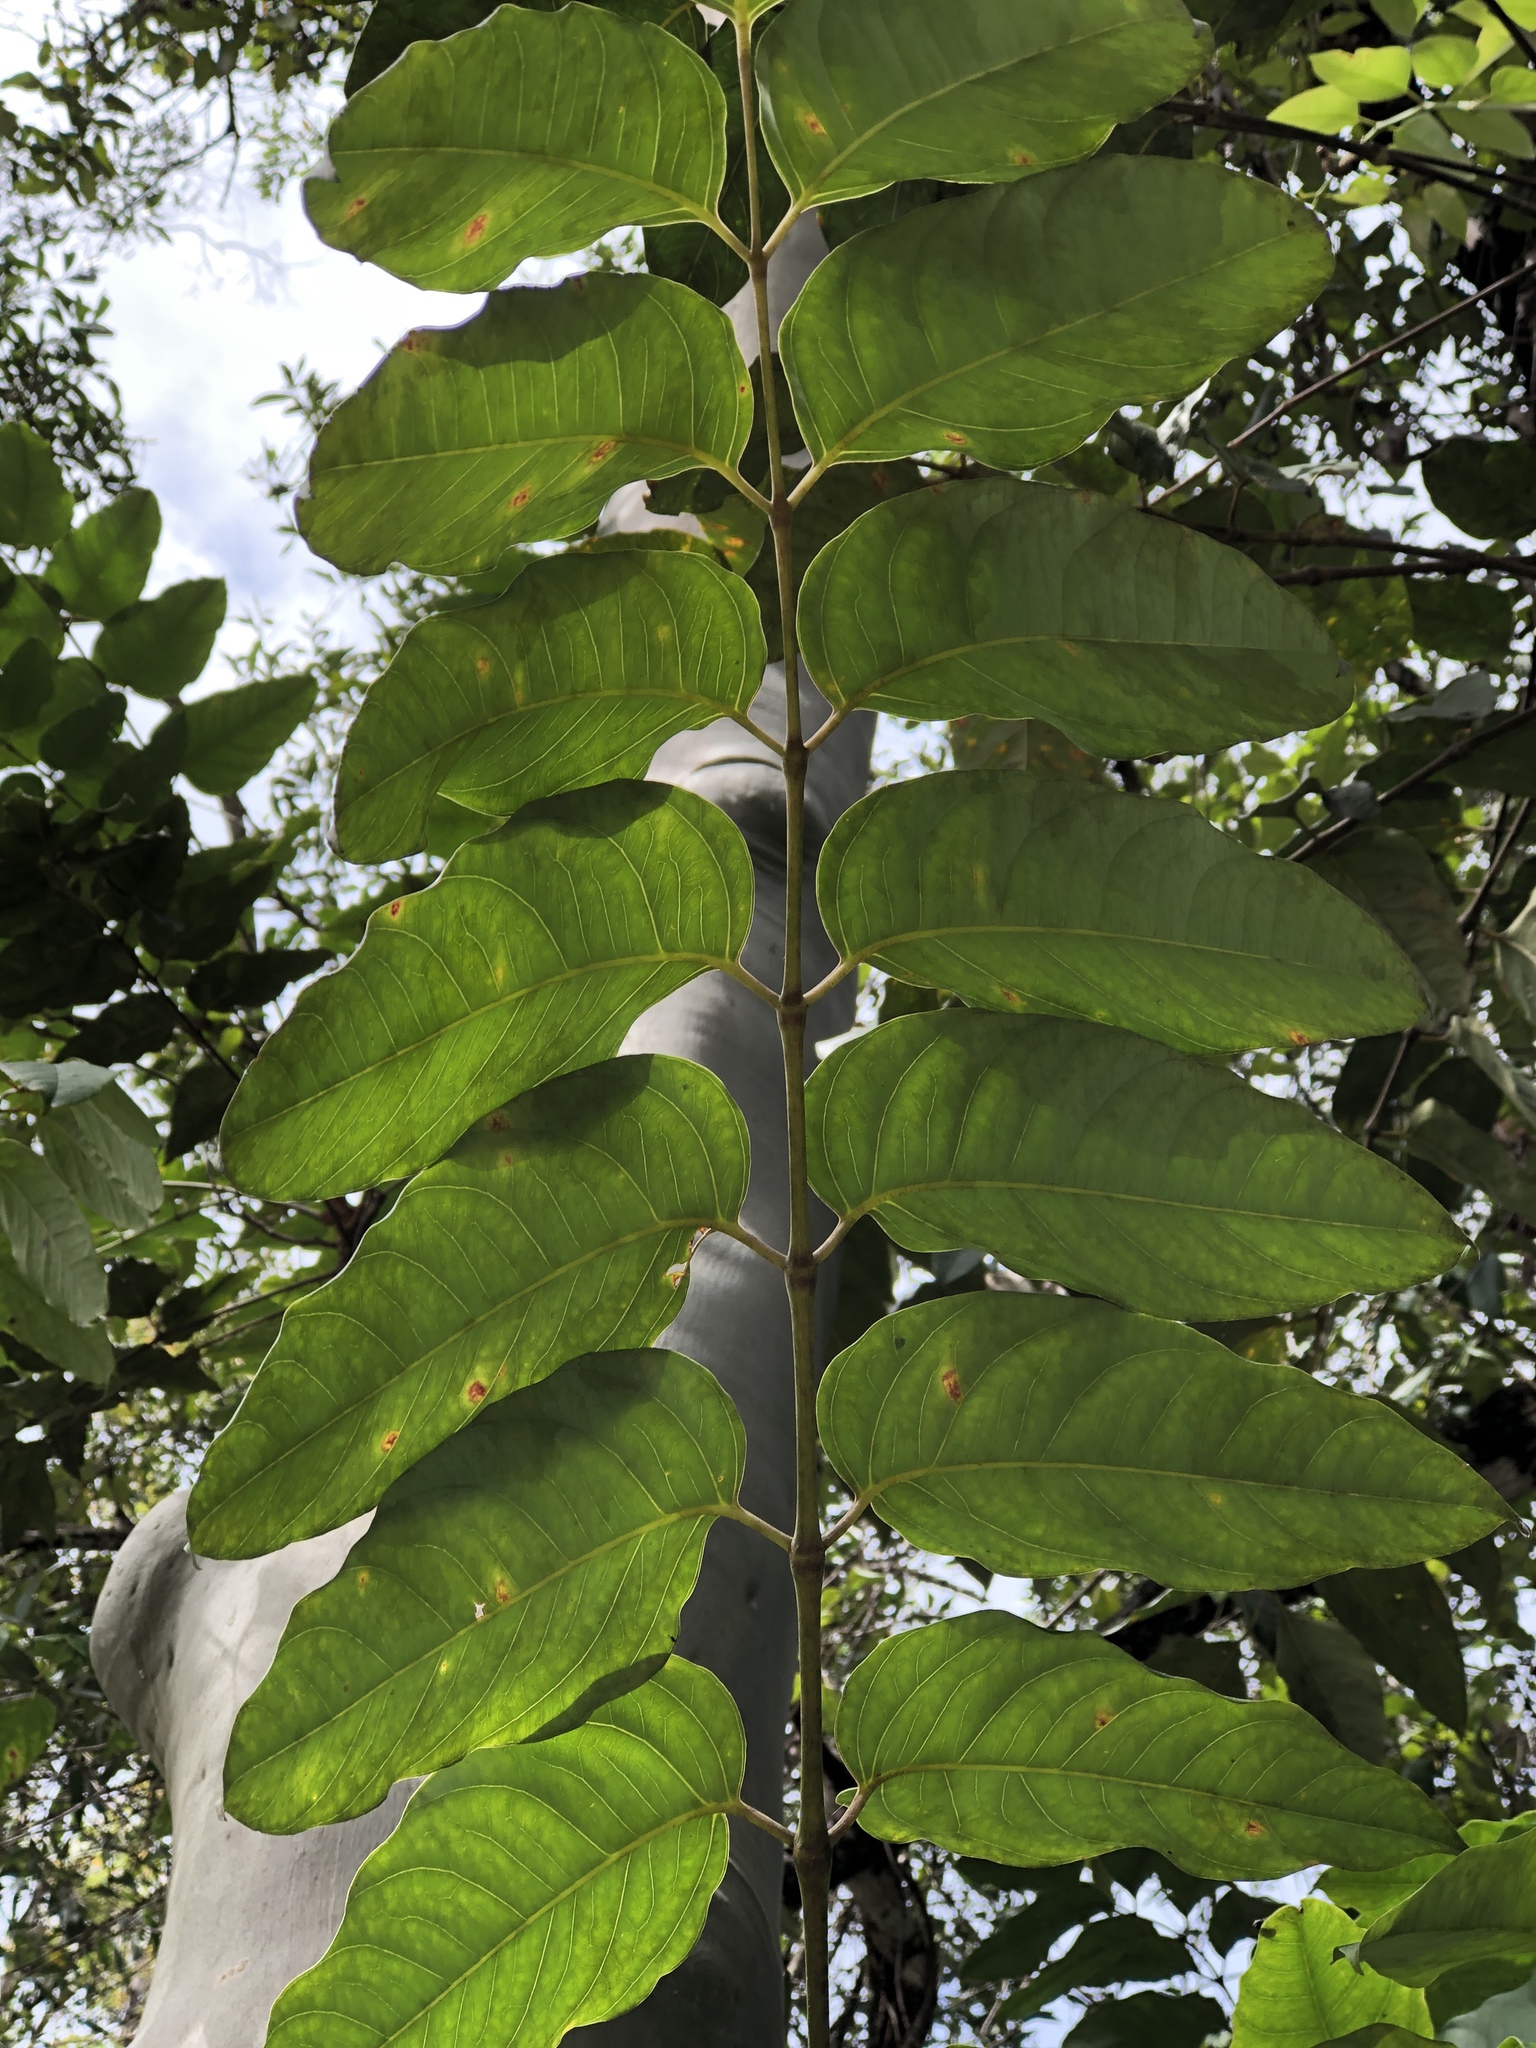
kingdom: Plantae
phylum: Tracheophyta
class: Magnoliopsida
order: Apiales
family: Araliaceae
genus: Polyscias
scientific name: Polyscias australiana
